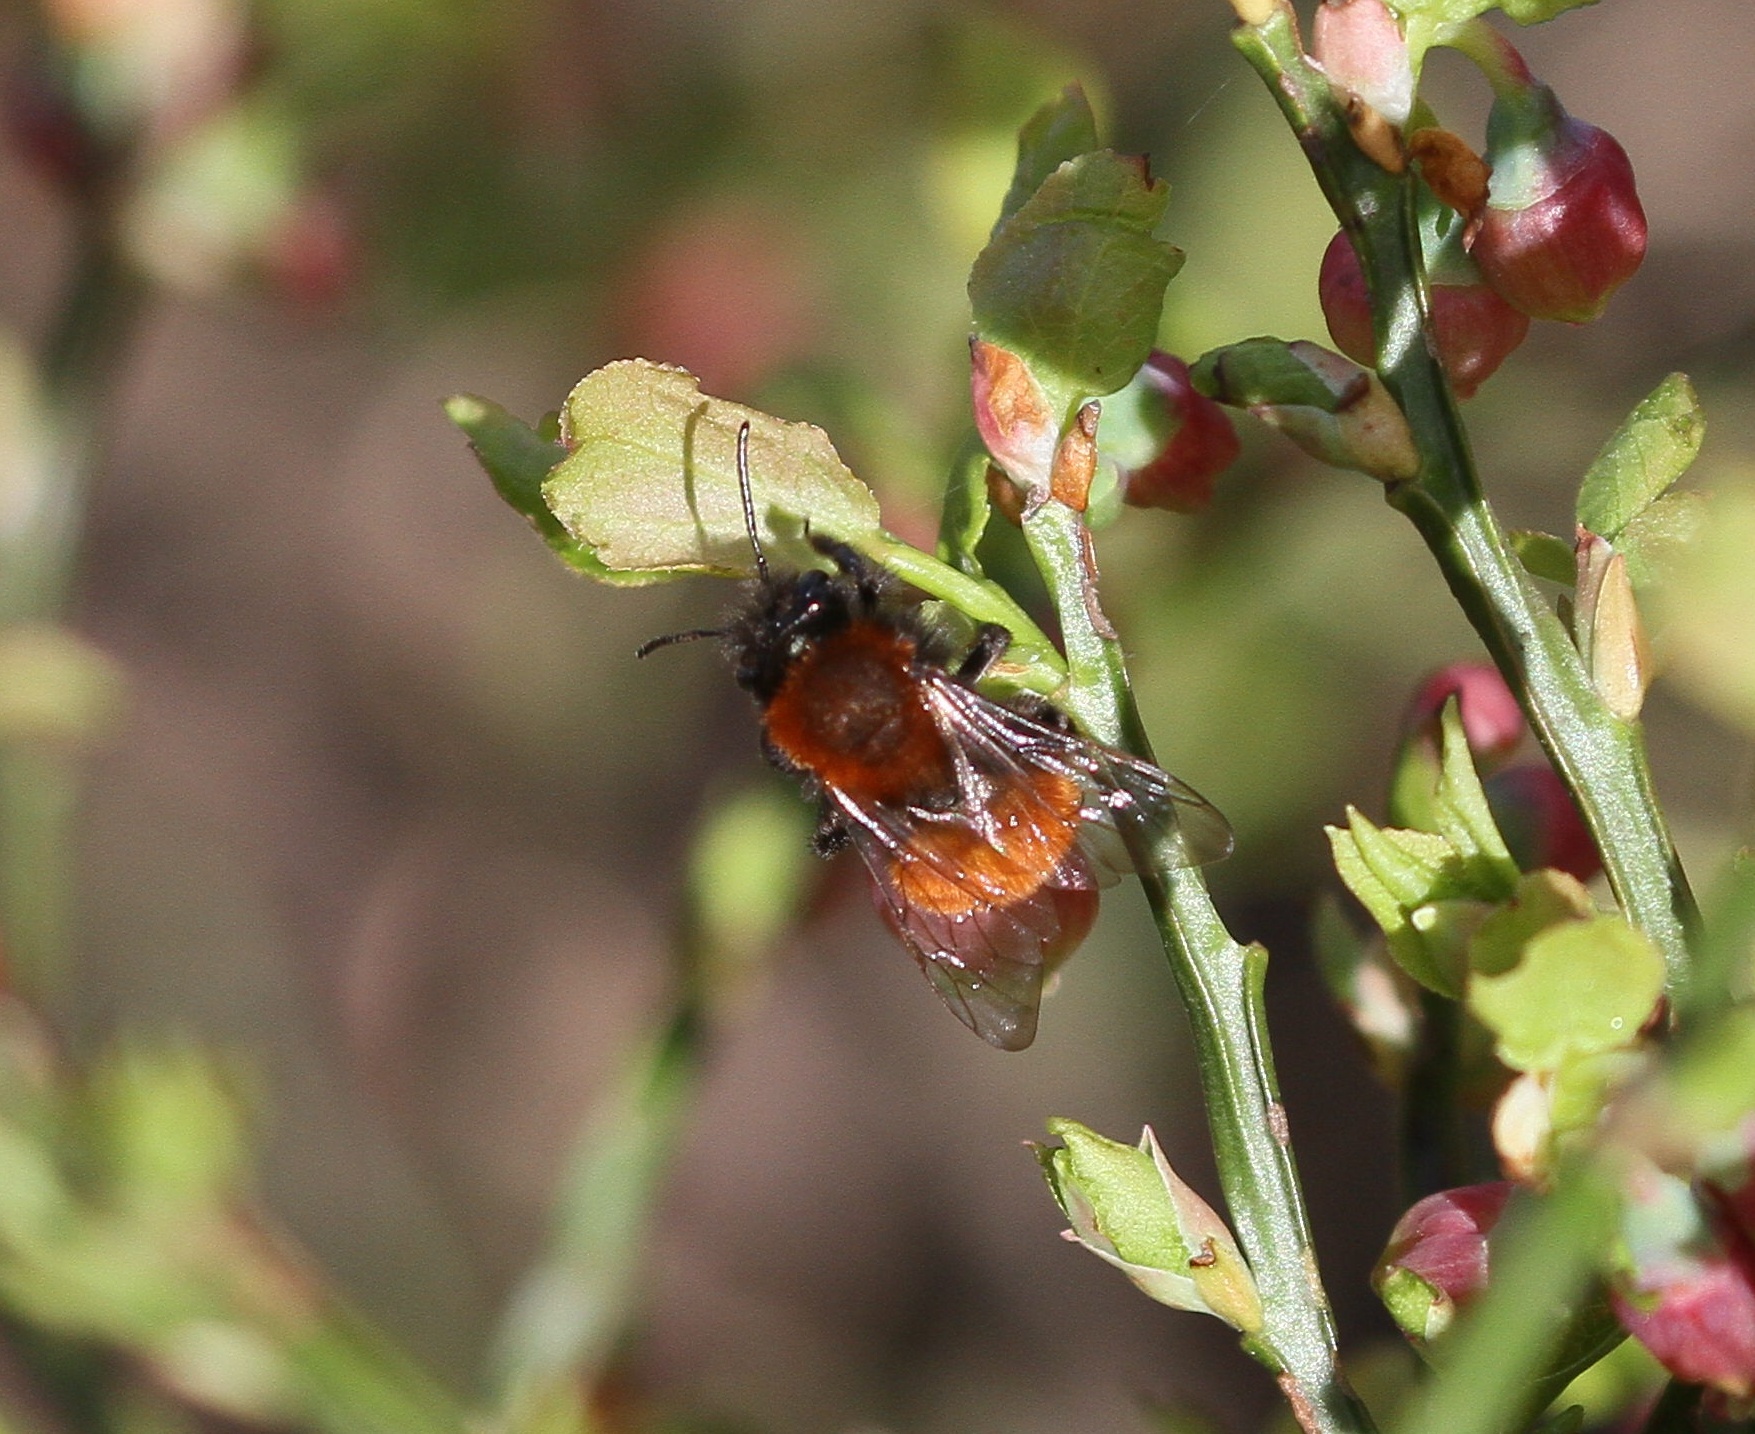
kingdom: Animalia
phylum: Arthropoda
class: Insecta
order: Hymenoptera
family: Andrenidae
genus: Andrena
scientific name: Andrena fulva
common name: Tawny mining bee
